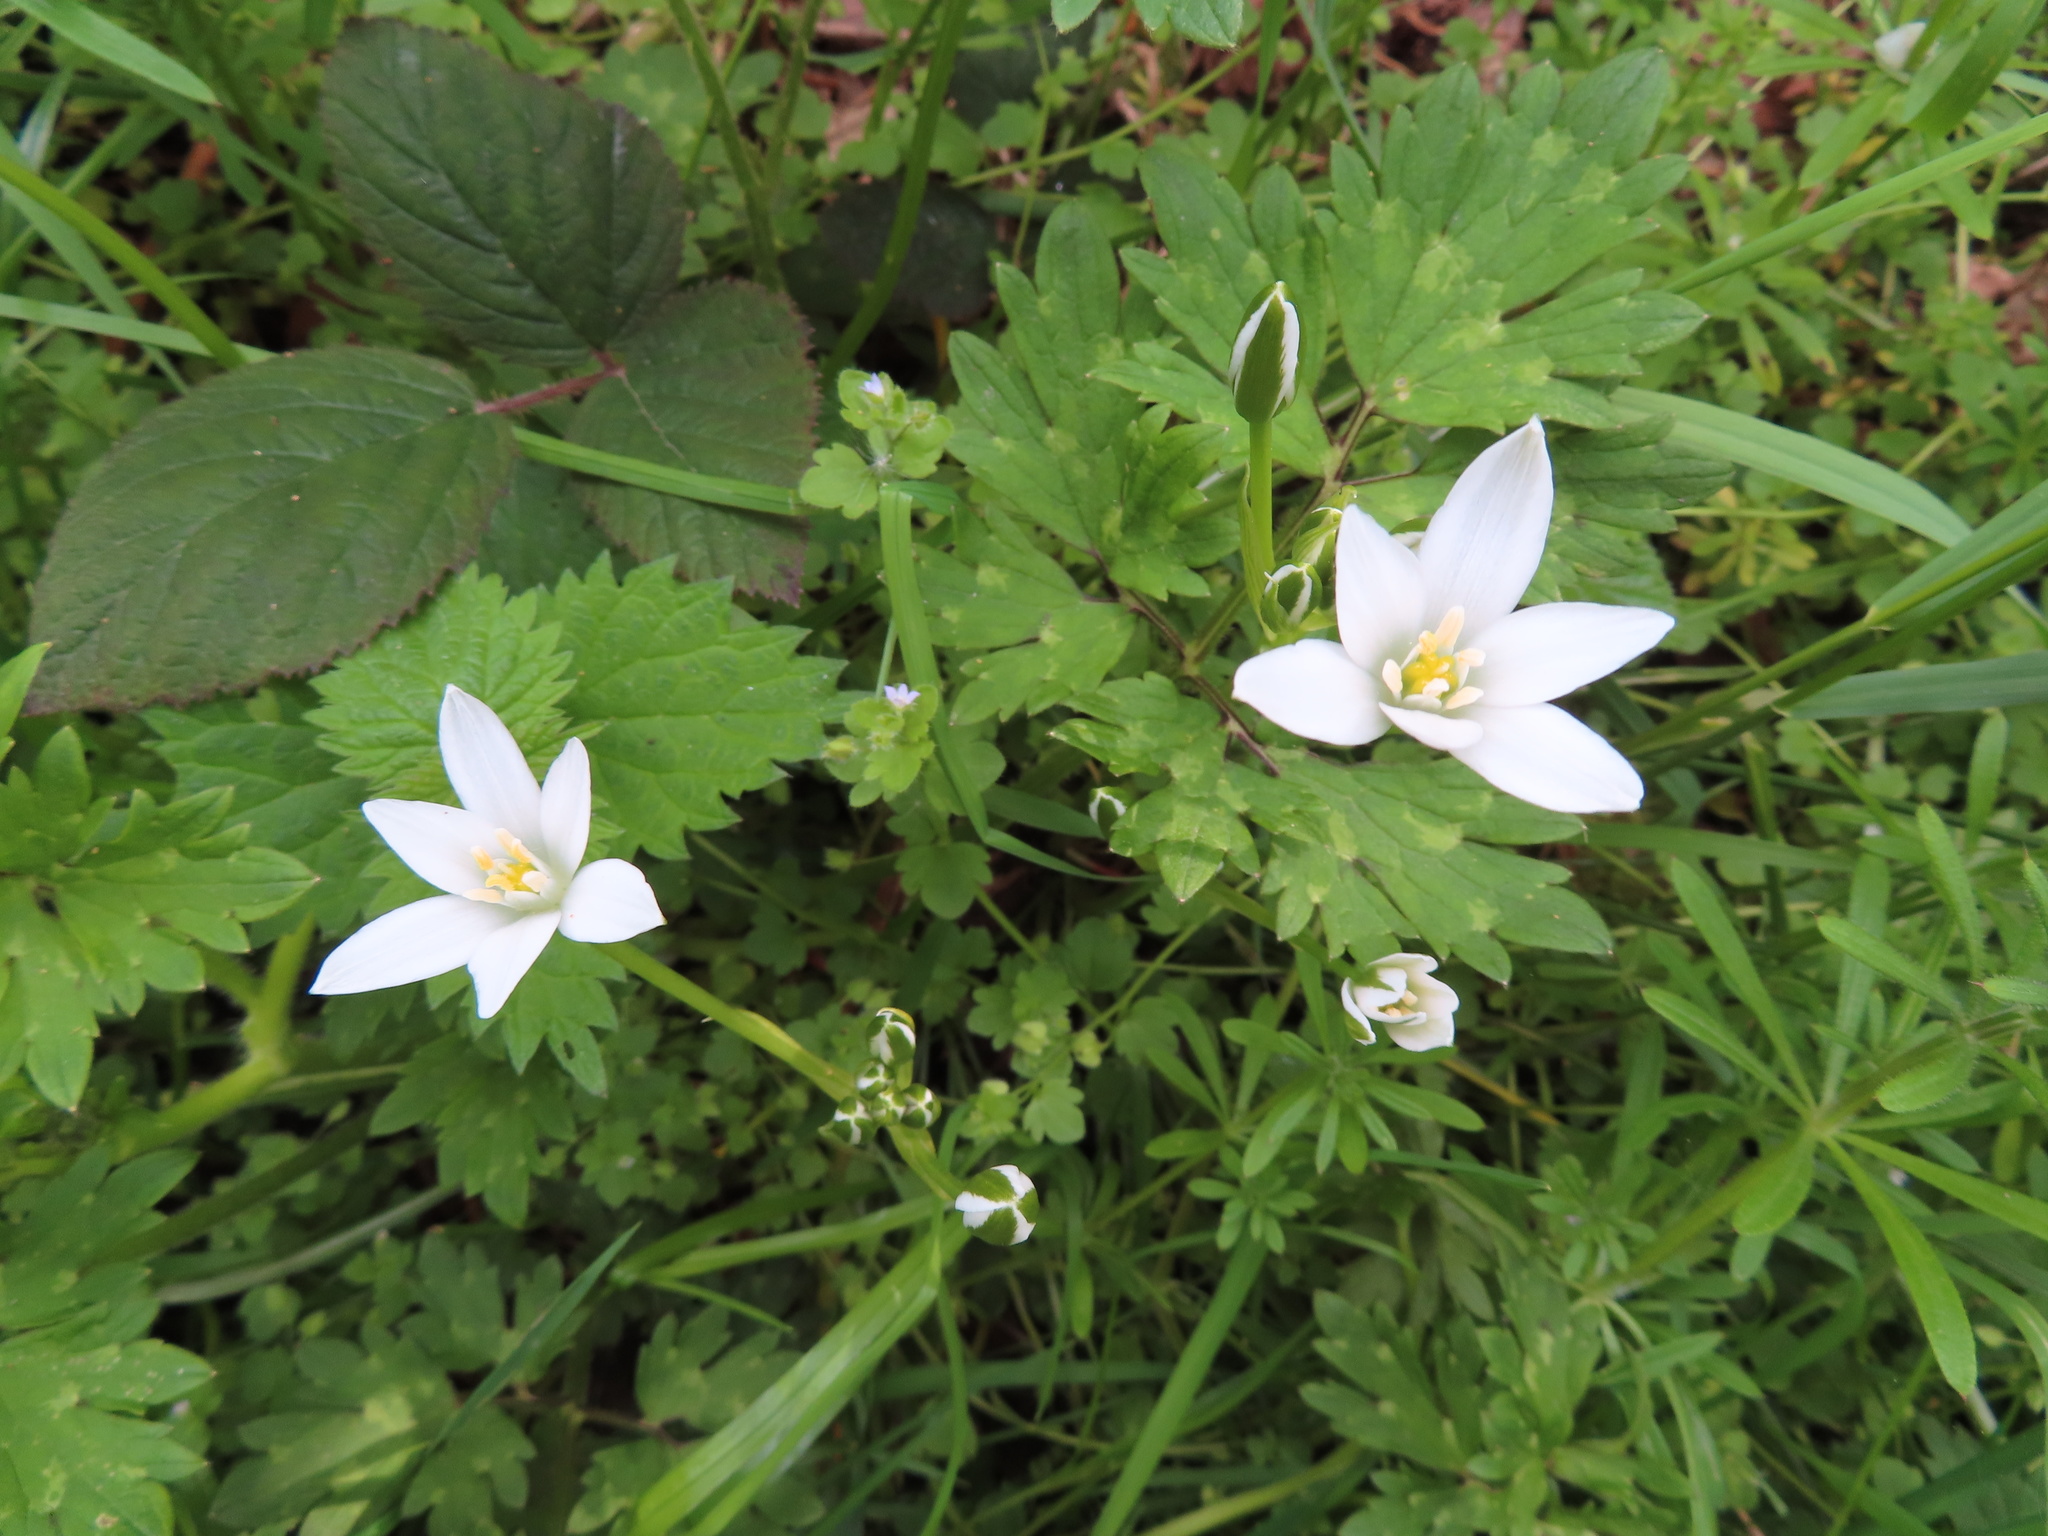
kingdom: Plantae
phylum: Tracheophyta
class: Liliopsida
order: Asparagales
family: Asparagaceae
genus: Ornithogalum
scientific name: Ornithogalum umbellatum
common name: Garden star-of-bethlehem
